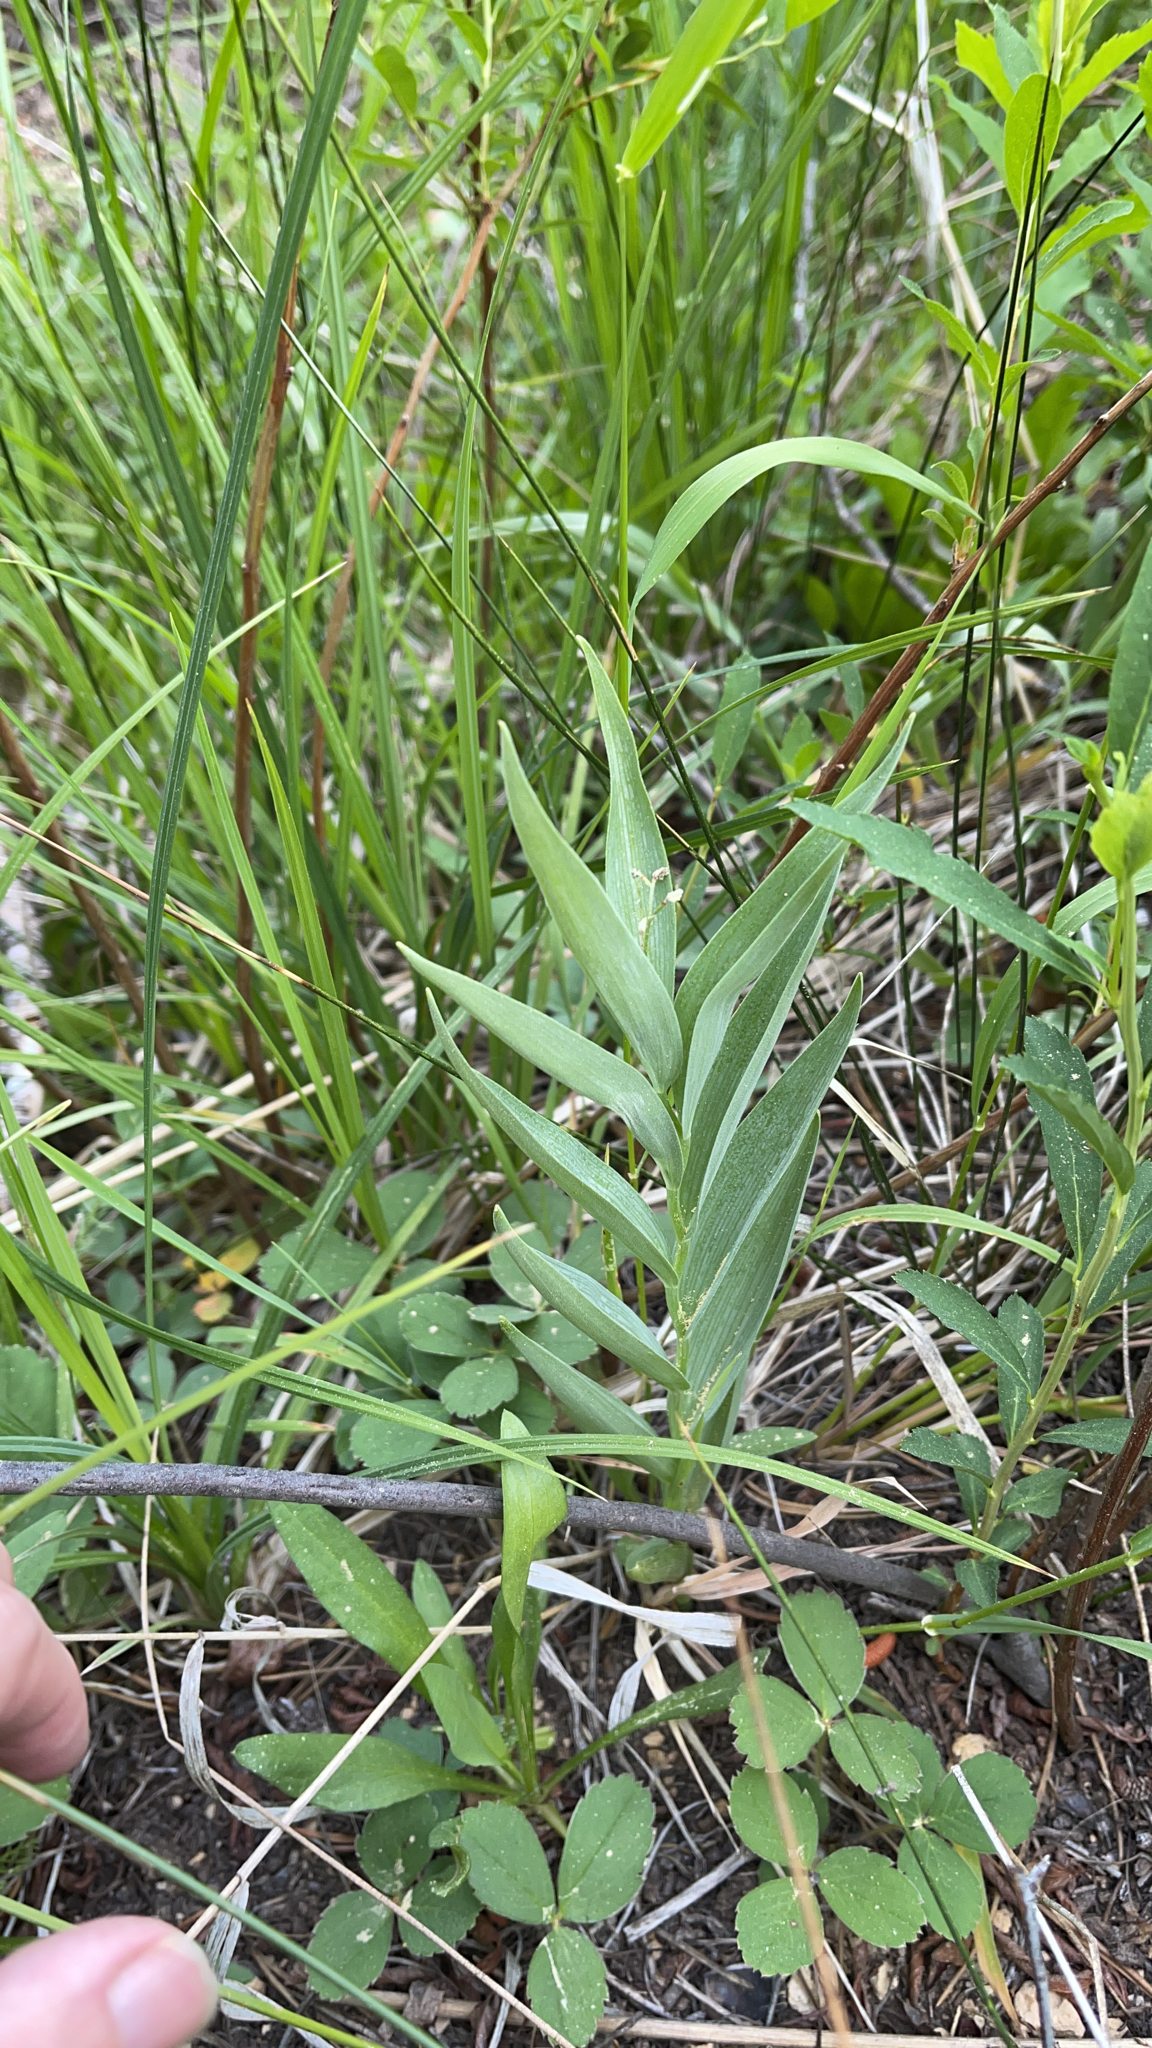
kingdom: Plantae
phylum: Tracheophyta
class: Liliopsida
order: Asparagales
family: Asparagaceae
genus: Maianthemum
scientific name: Maianthemum stellatum
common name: Little false solomon's seal
